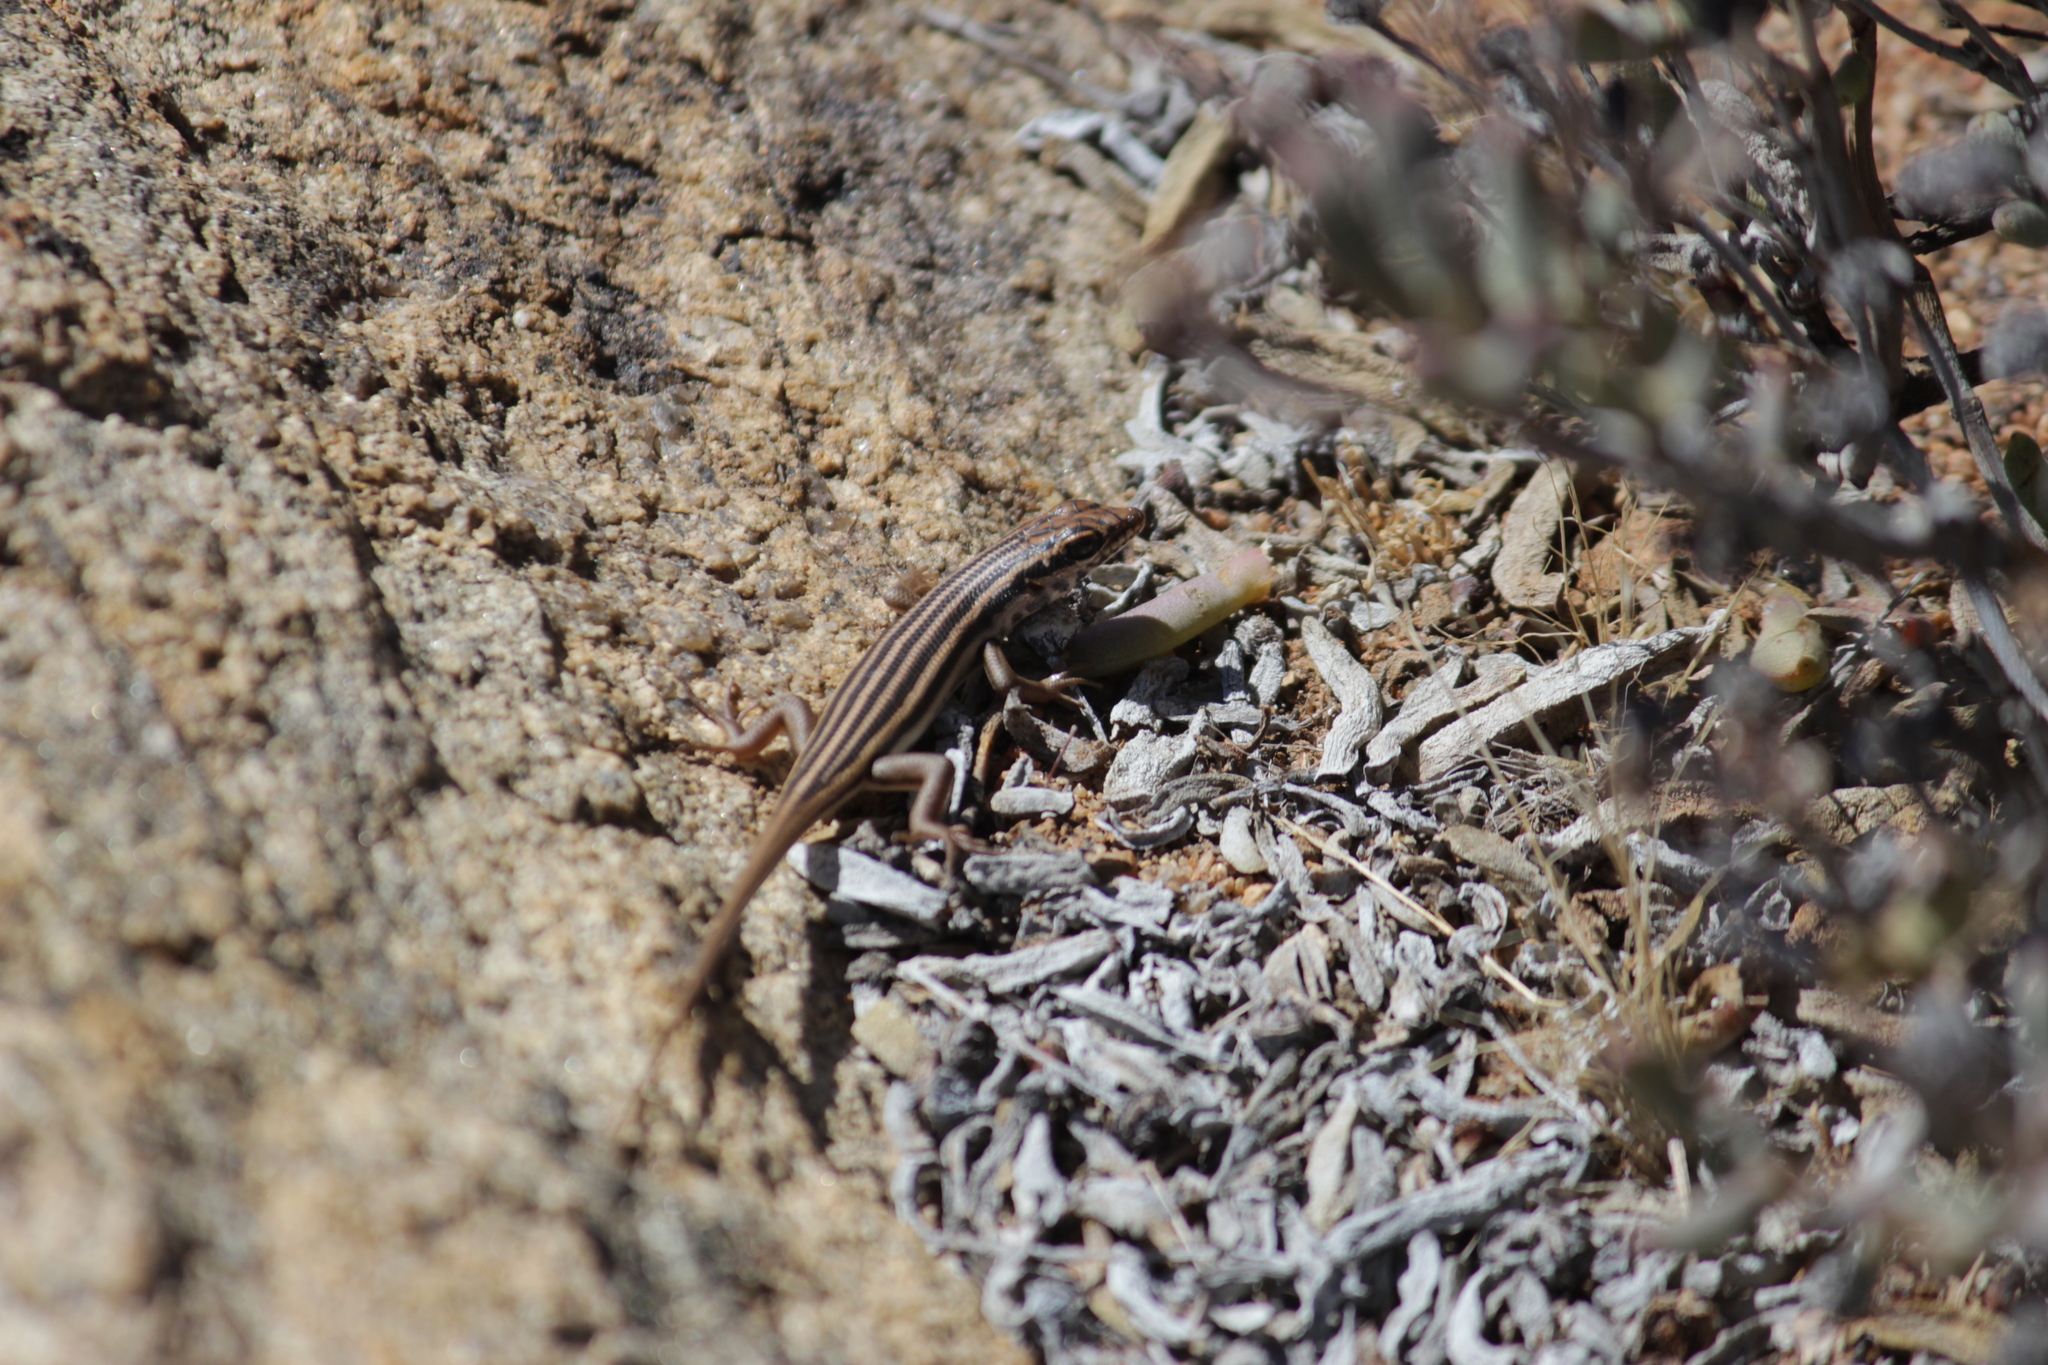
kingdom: Animalia
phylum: Chordata
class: Squamata
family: Scincidae
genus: Trachylepis
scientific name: Trachylepis sulcata
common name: Western rock skink
